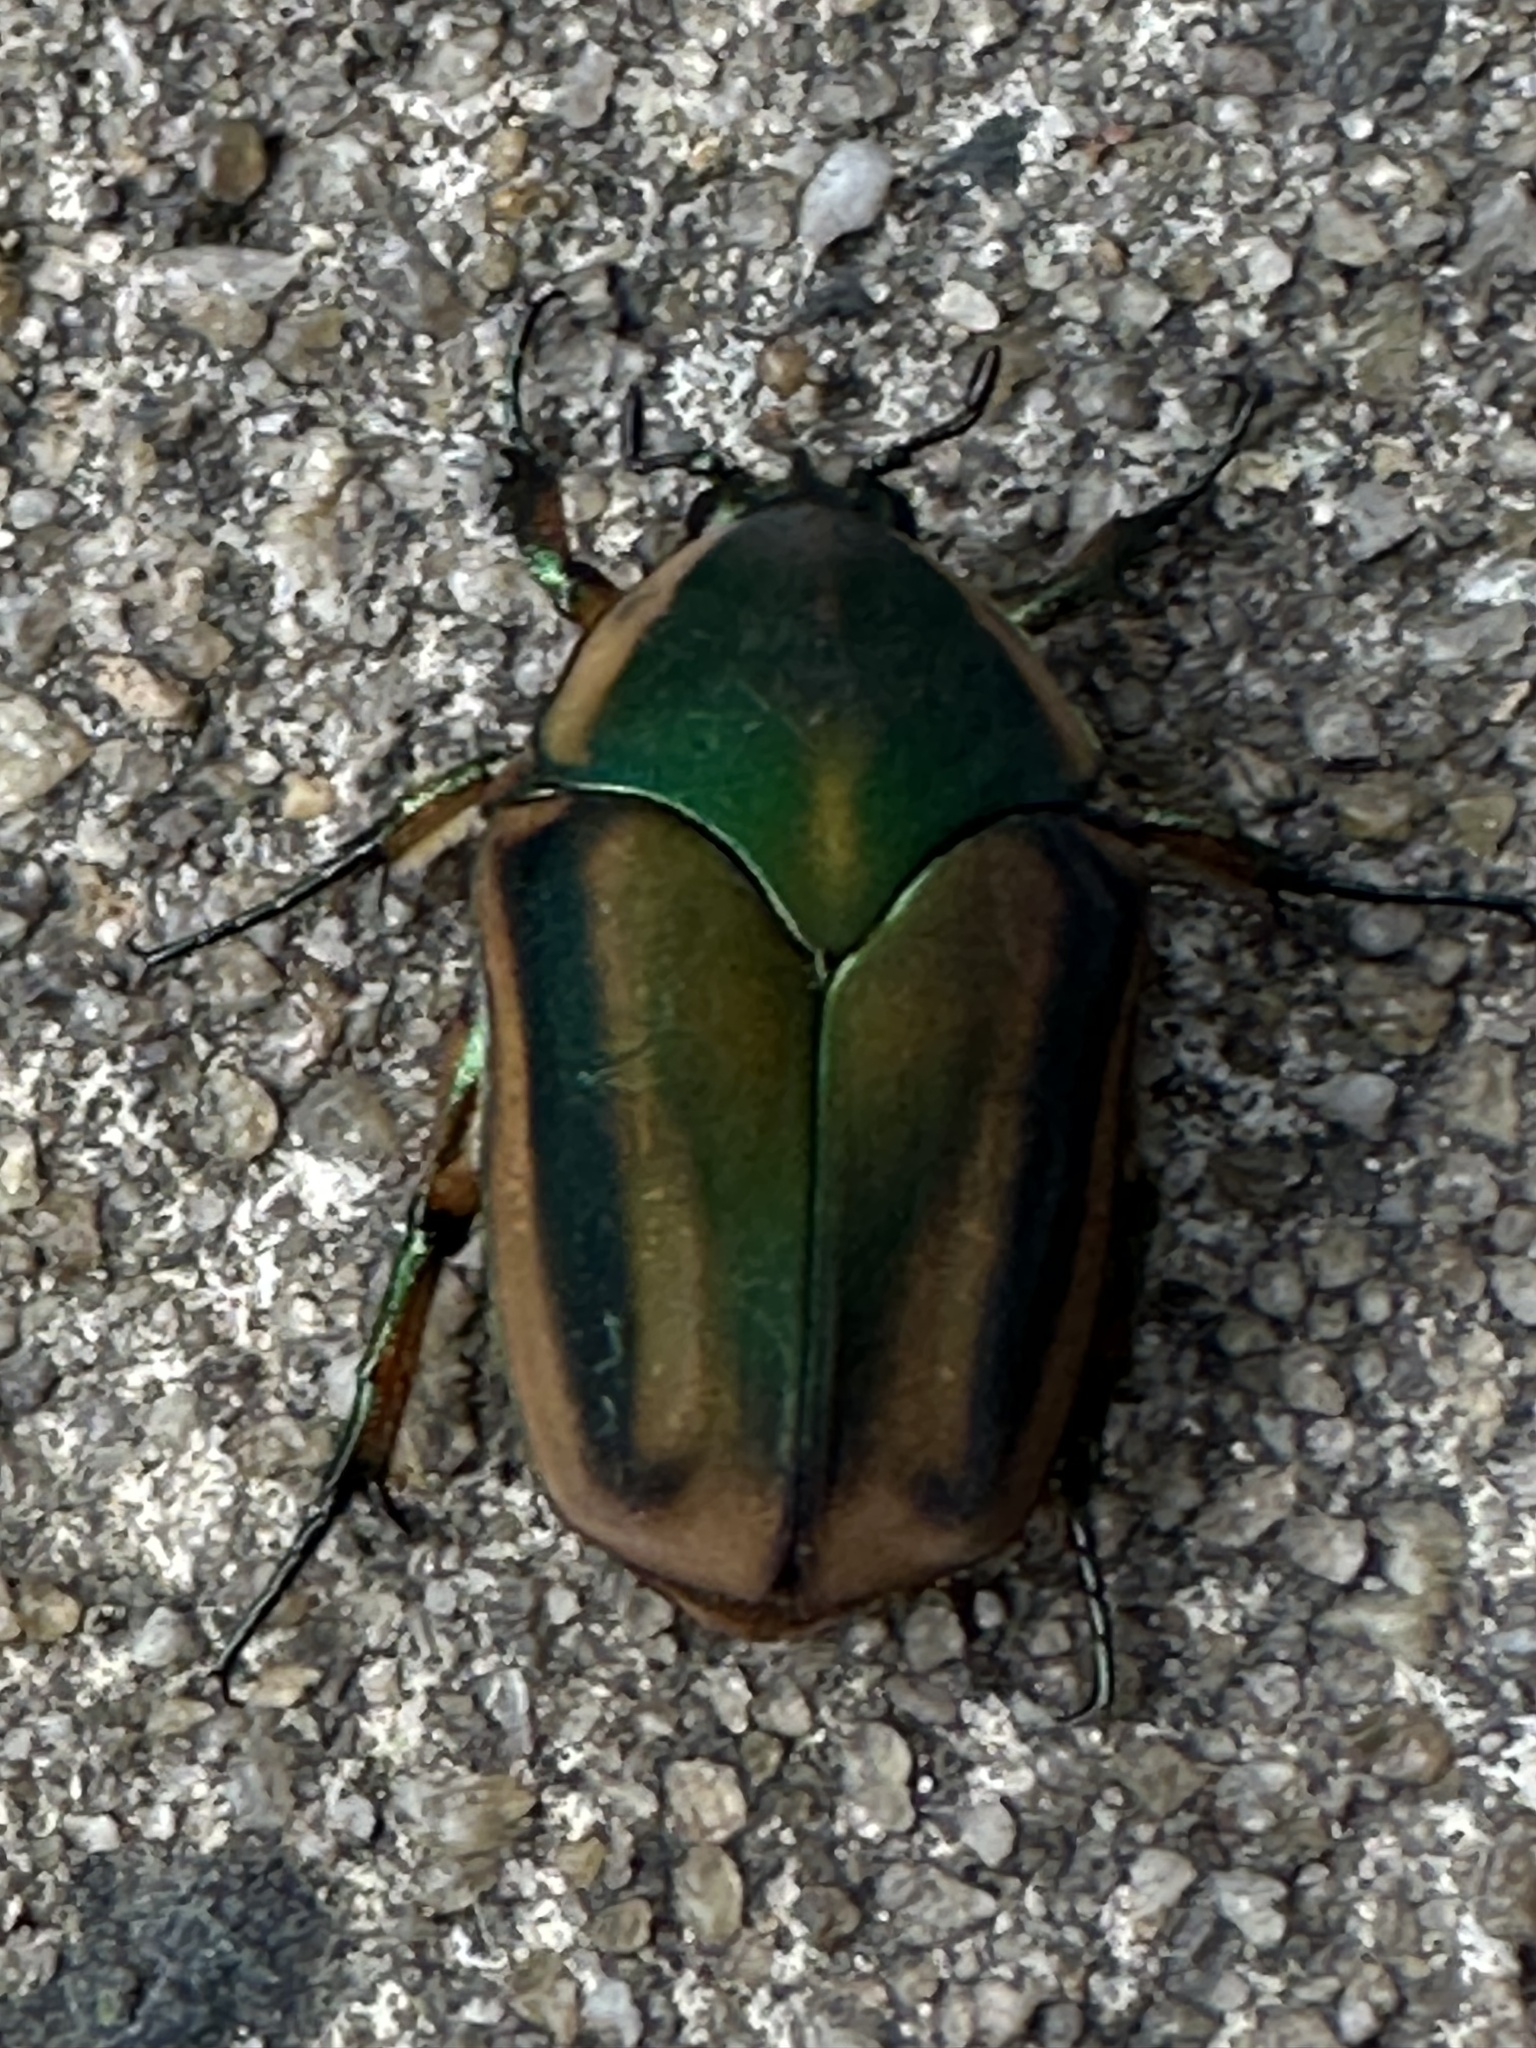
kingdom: Animalia
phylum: Arthropoda
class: Insecta
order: Coleoptera
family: Scarabaeidae
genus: Cotinis
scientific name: Cotinis nitida
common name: Common green june beetle
